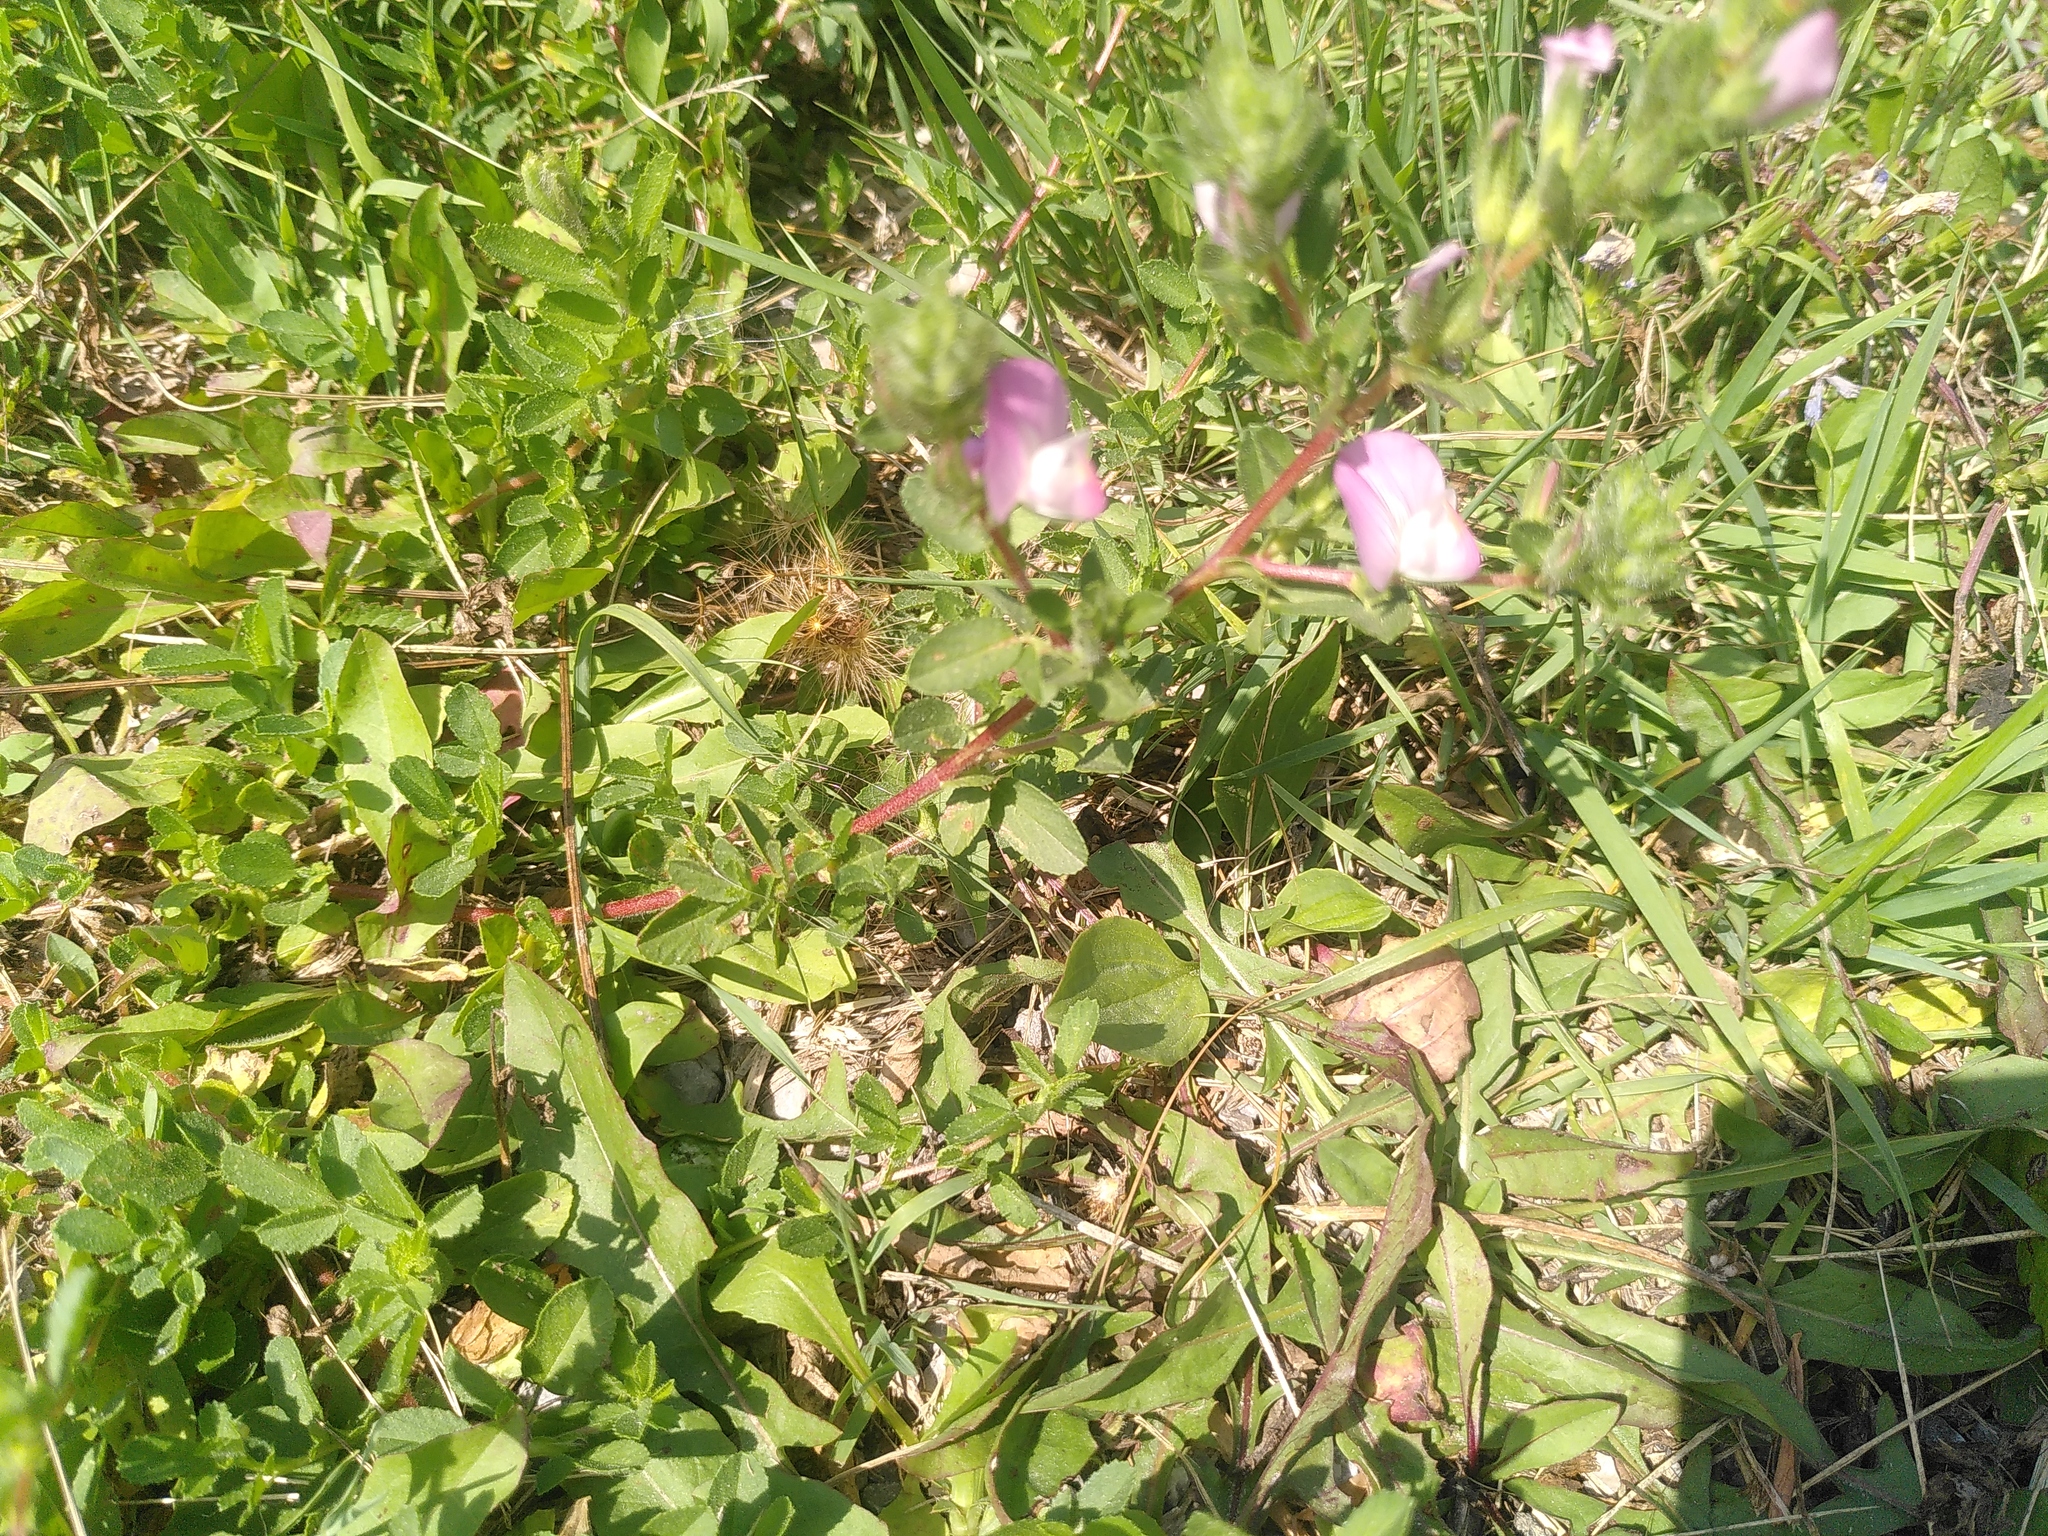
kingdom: Plantae
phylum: Tracheophyta
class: Magnoliopsida
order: Fabales
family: Fabaceae
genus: Ononis
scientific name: Ononis spinosa
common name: Spiny restharrow
